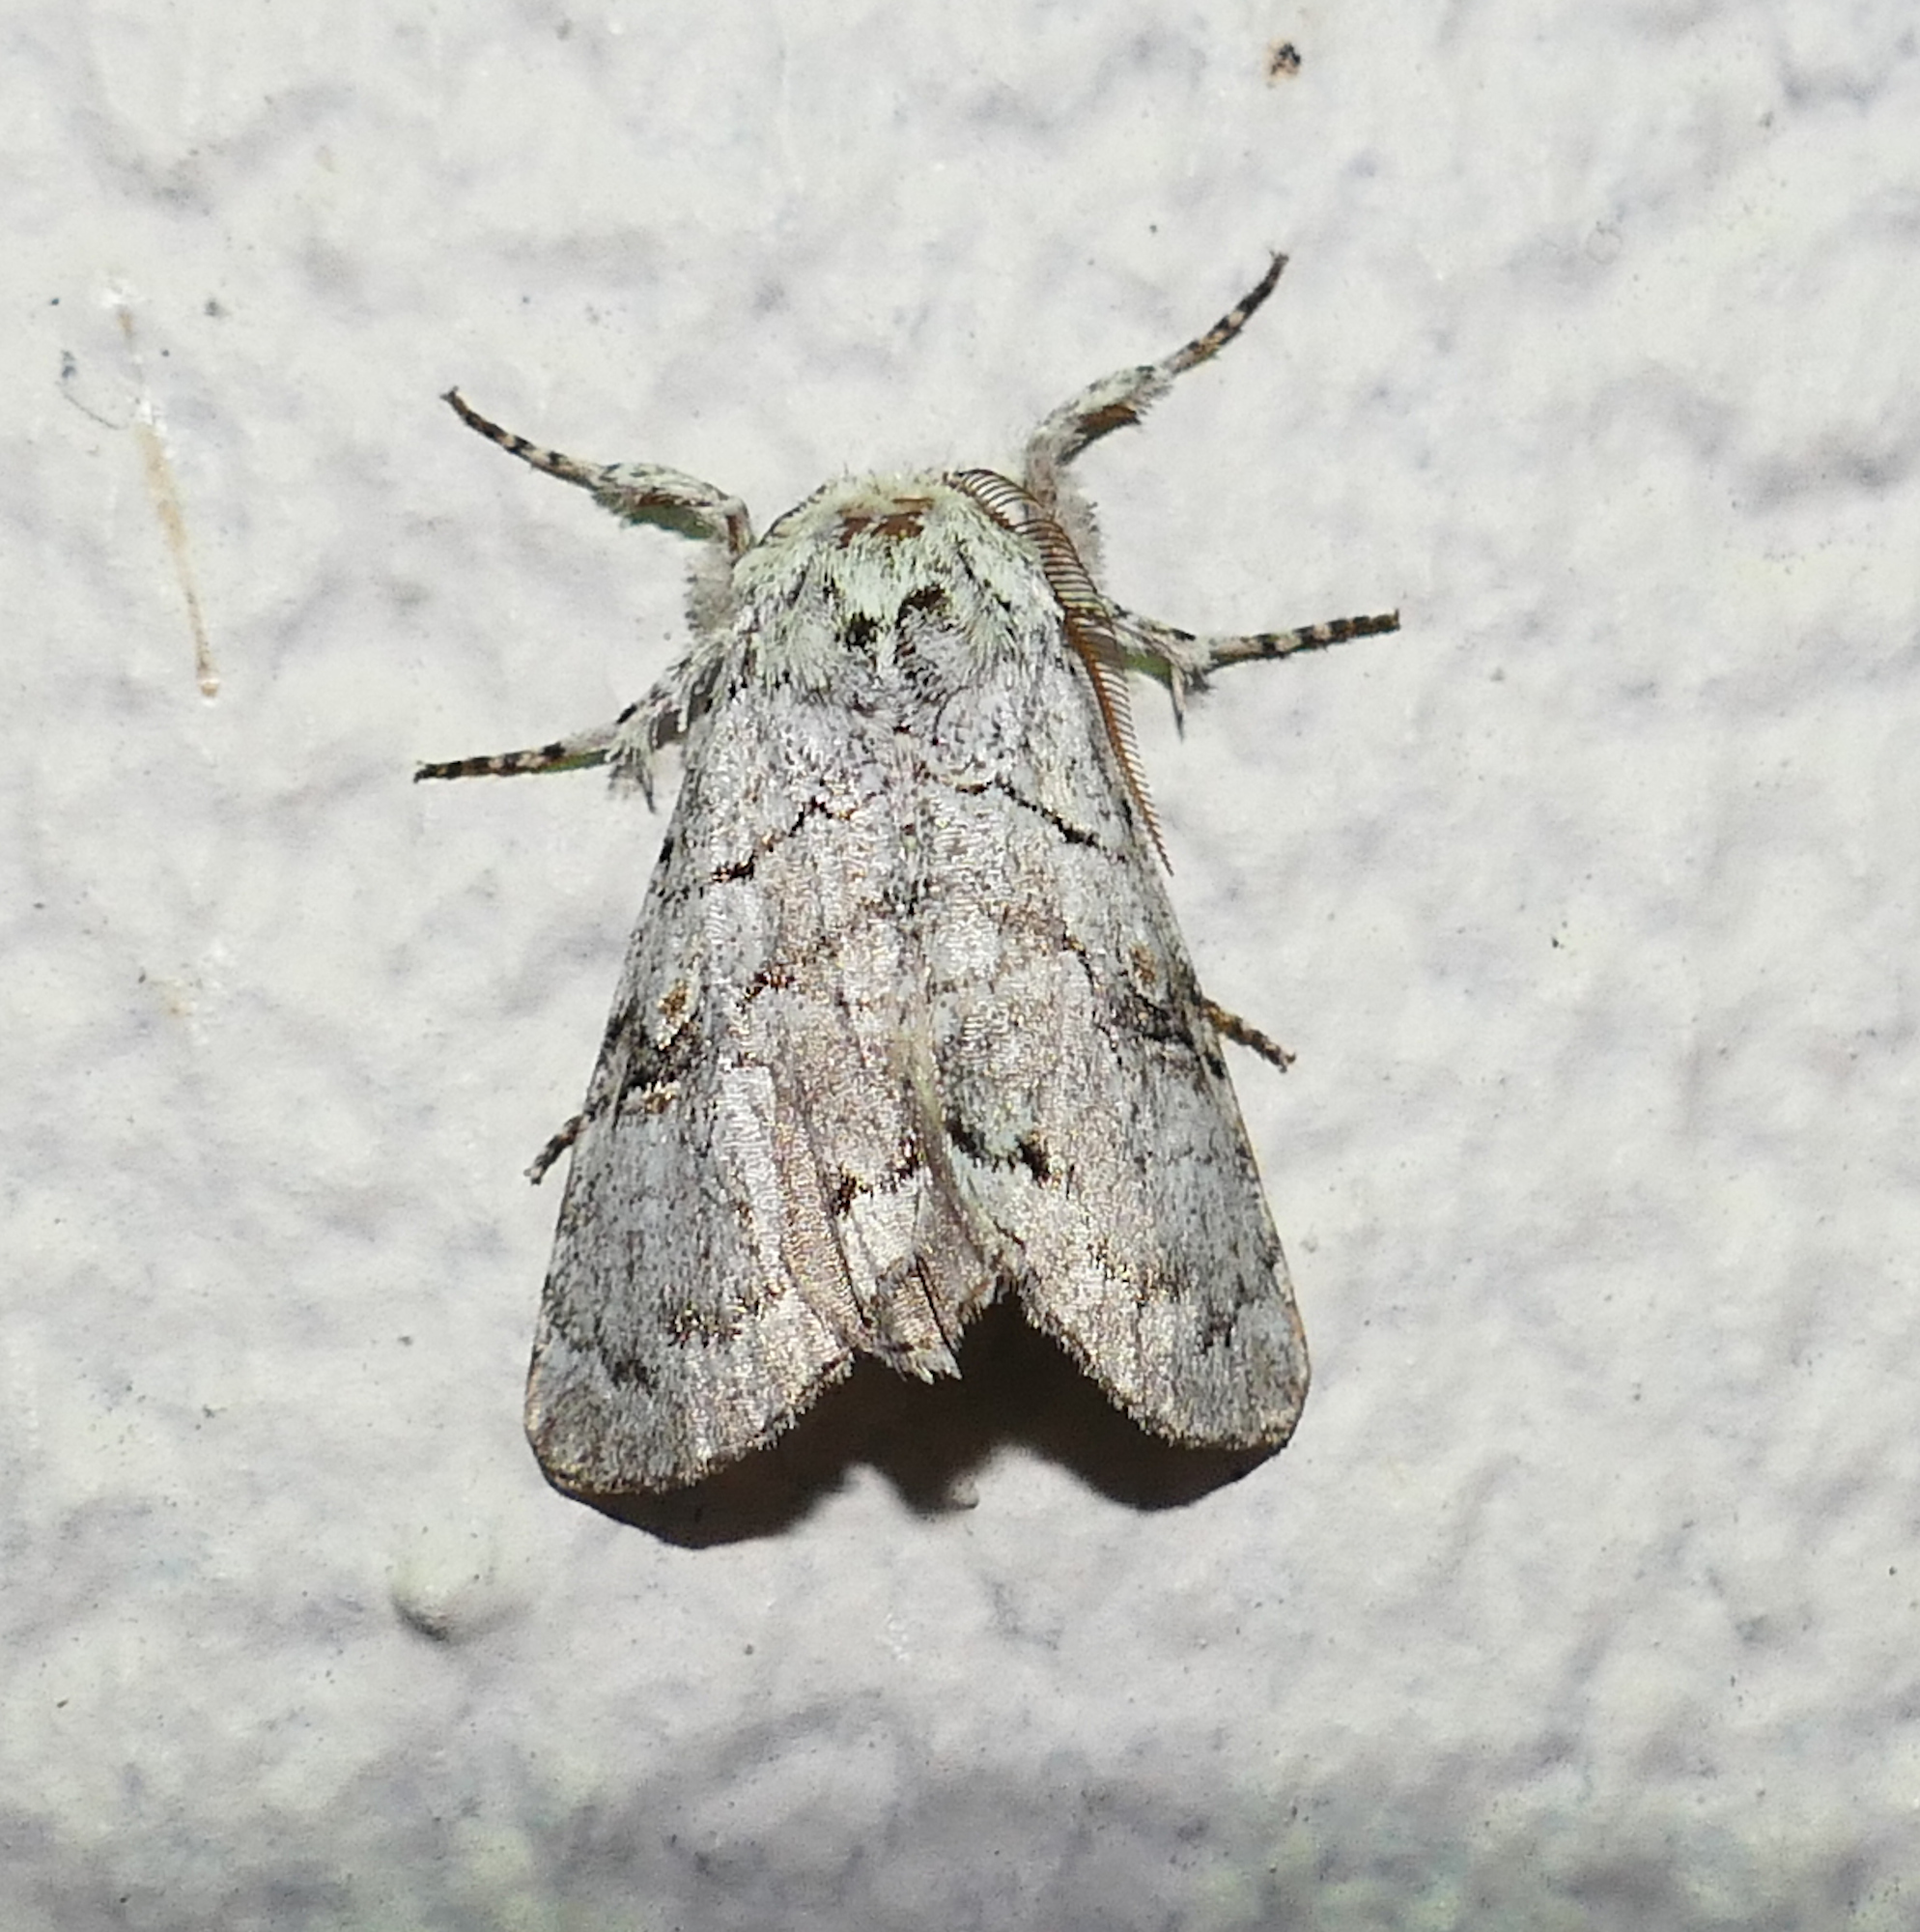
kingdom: Animalia
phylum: Arthropoda
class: Insecta
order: Lepidoptera
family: Noctuidae
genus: Charadra
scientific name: Charadra dispulsa
